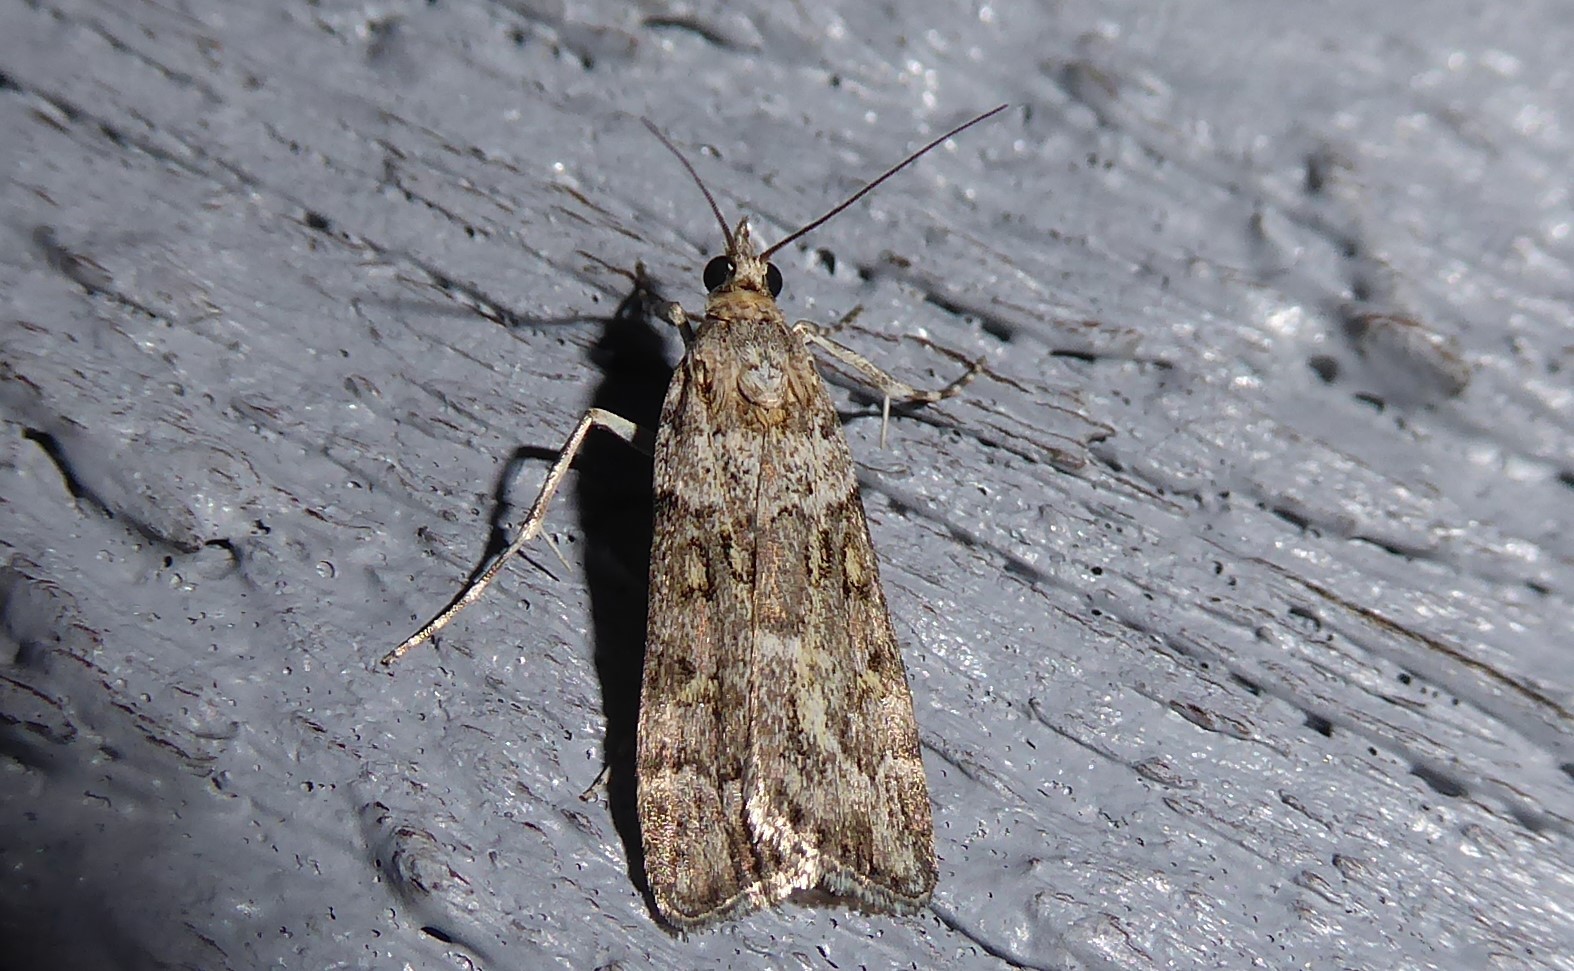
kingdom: Animalia
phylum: Arthropoda
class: Insecta
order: Lepidoptera
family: Crambidae
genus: Eudonia
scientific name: Eudonia diphtheralis
